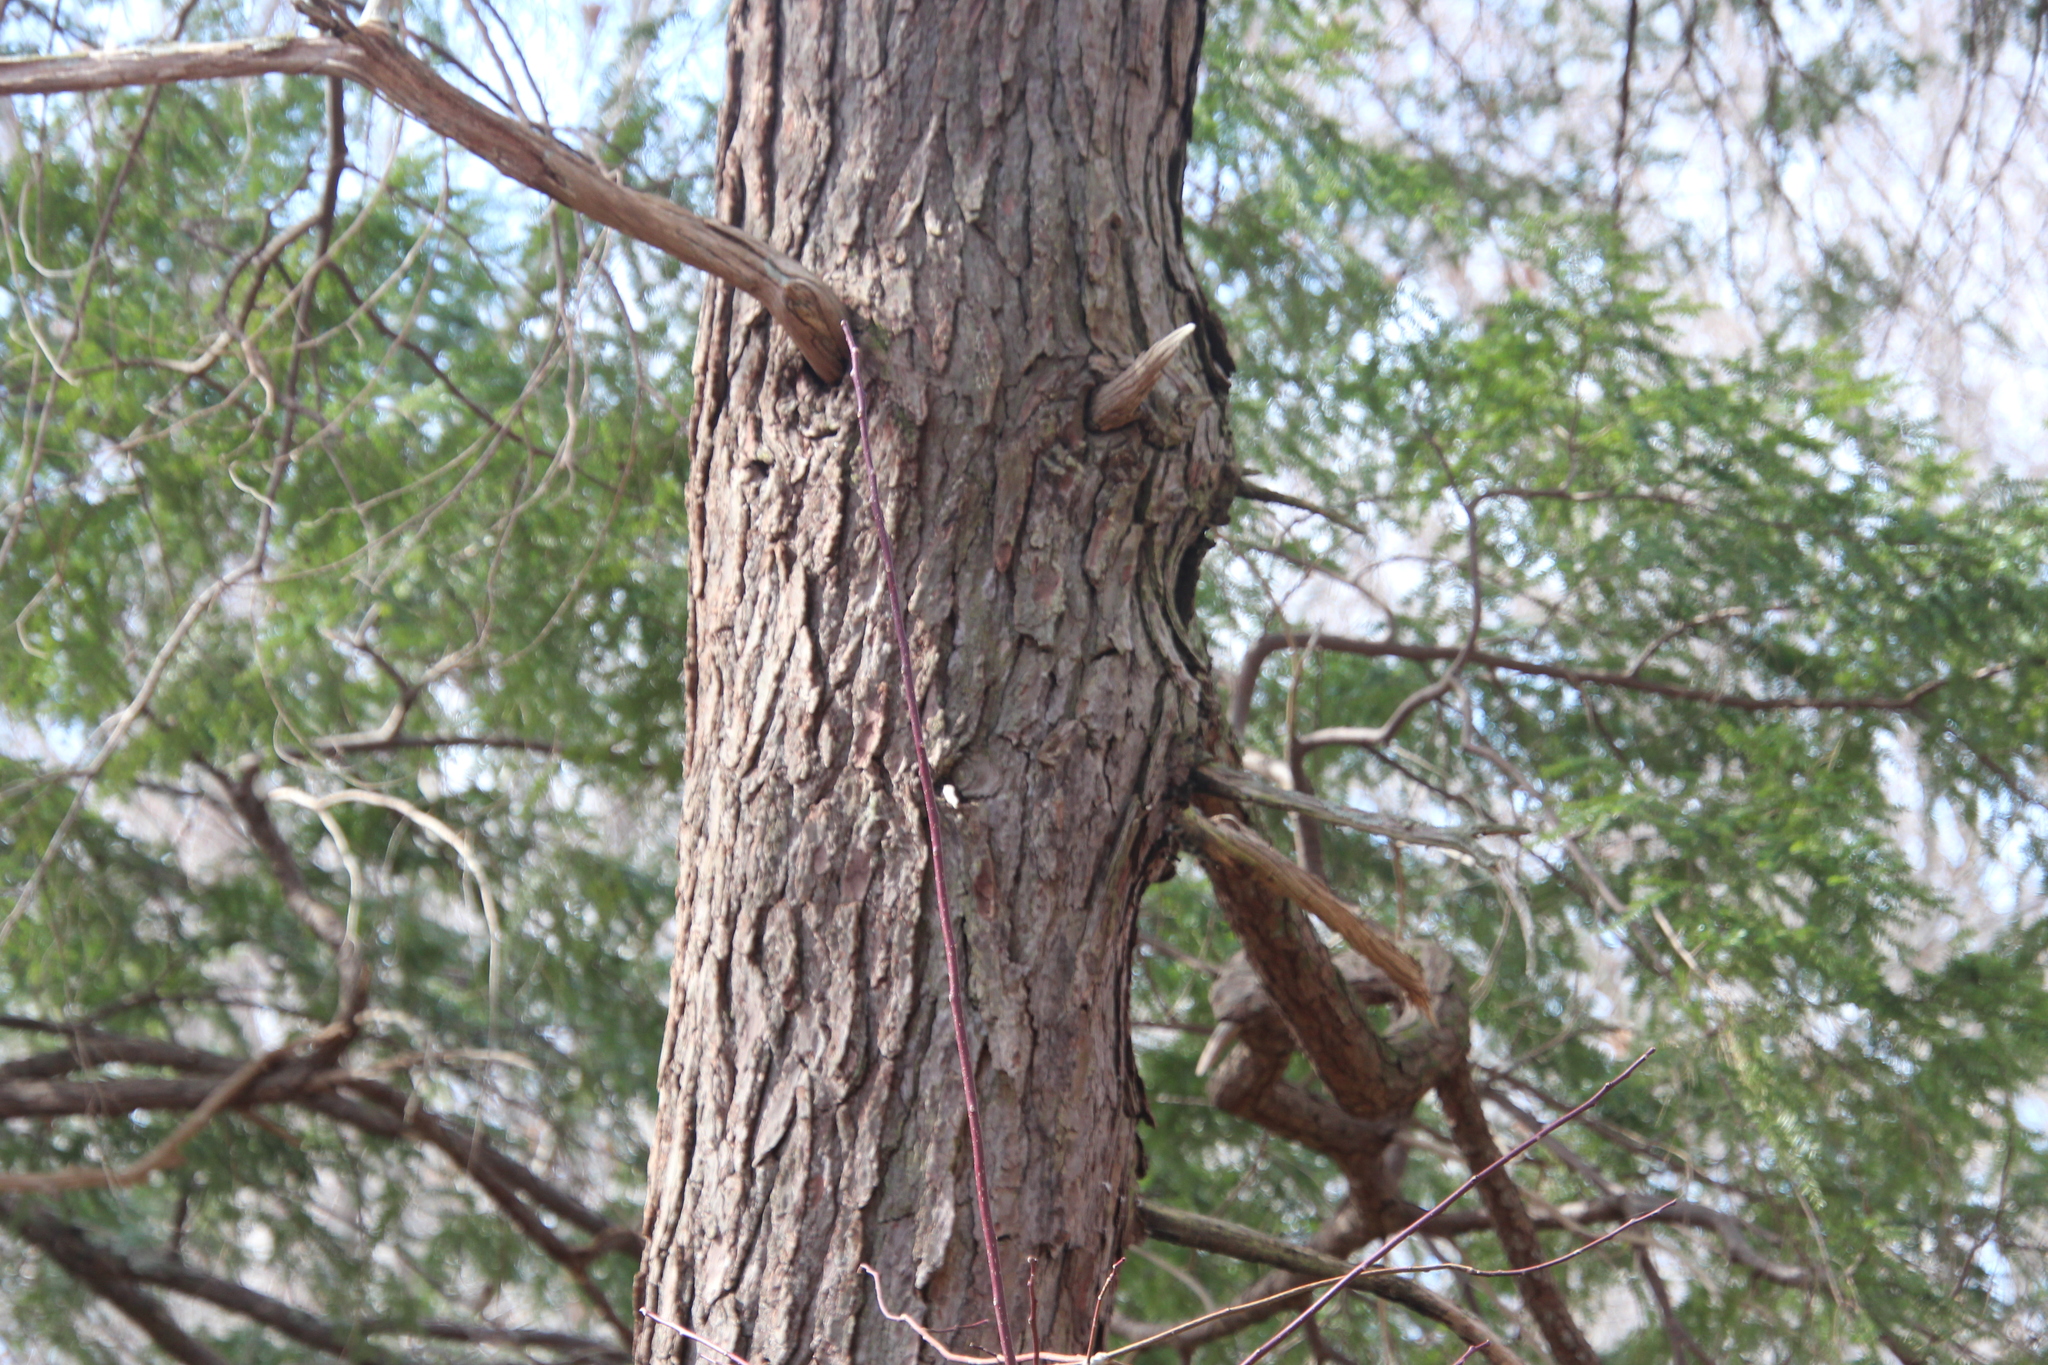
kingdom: Plantae
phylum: Tracheophyta
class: Pinopsida
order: Pinales
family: Pinaceae
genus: Tsuga
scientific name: Tsuga canadensis
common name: Eastern hemlock
